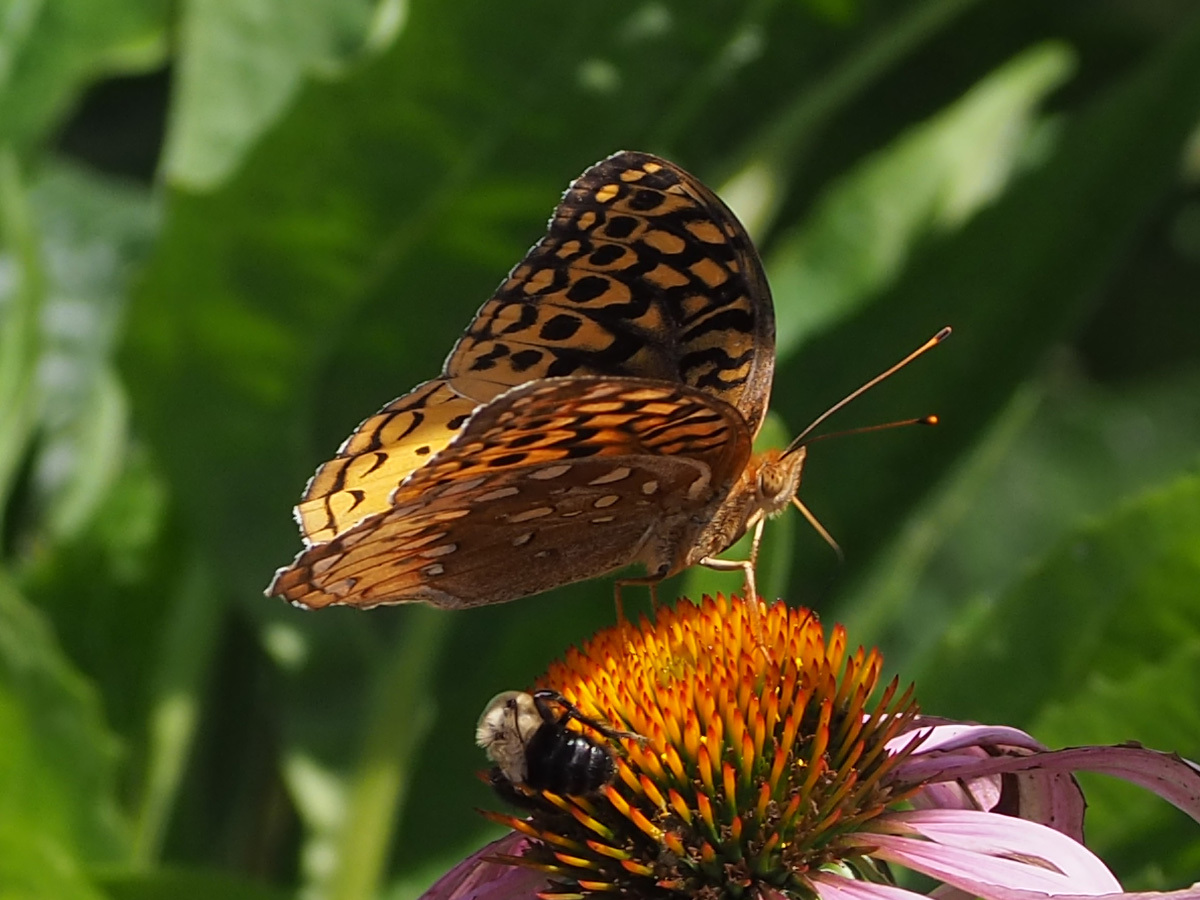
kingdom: Animalia
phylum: Arthropoda
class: Insecta
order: Lepidoptera
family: Nymphalidae
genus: Speyeria
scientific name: Speyeria cybele
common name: Great spangled fritillary
